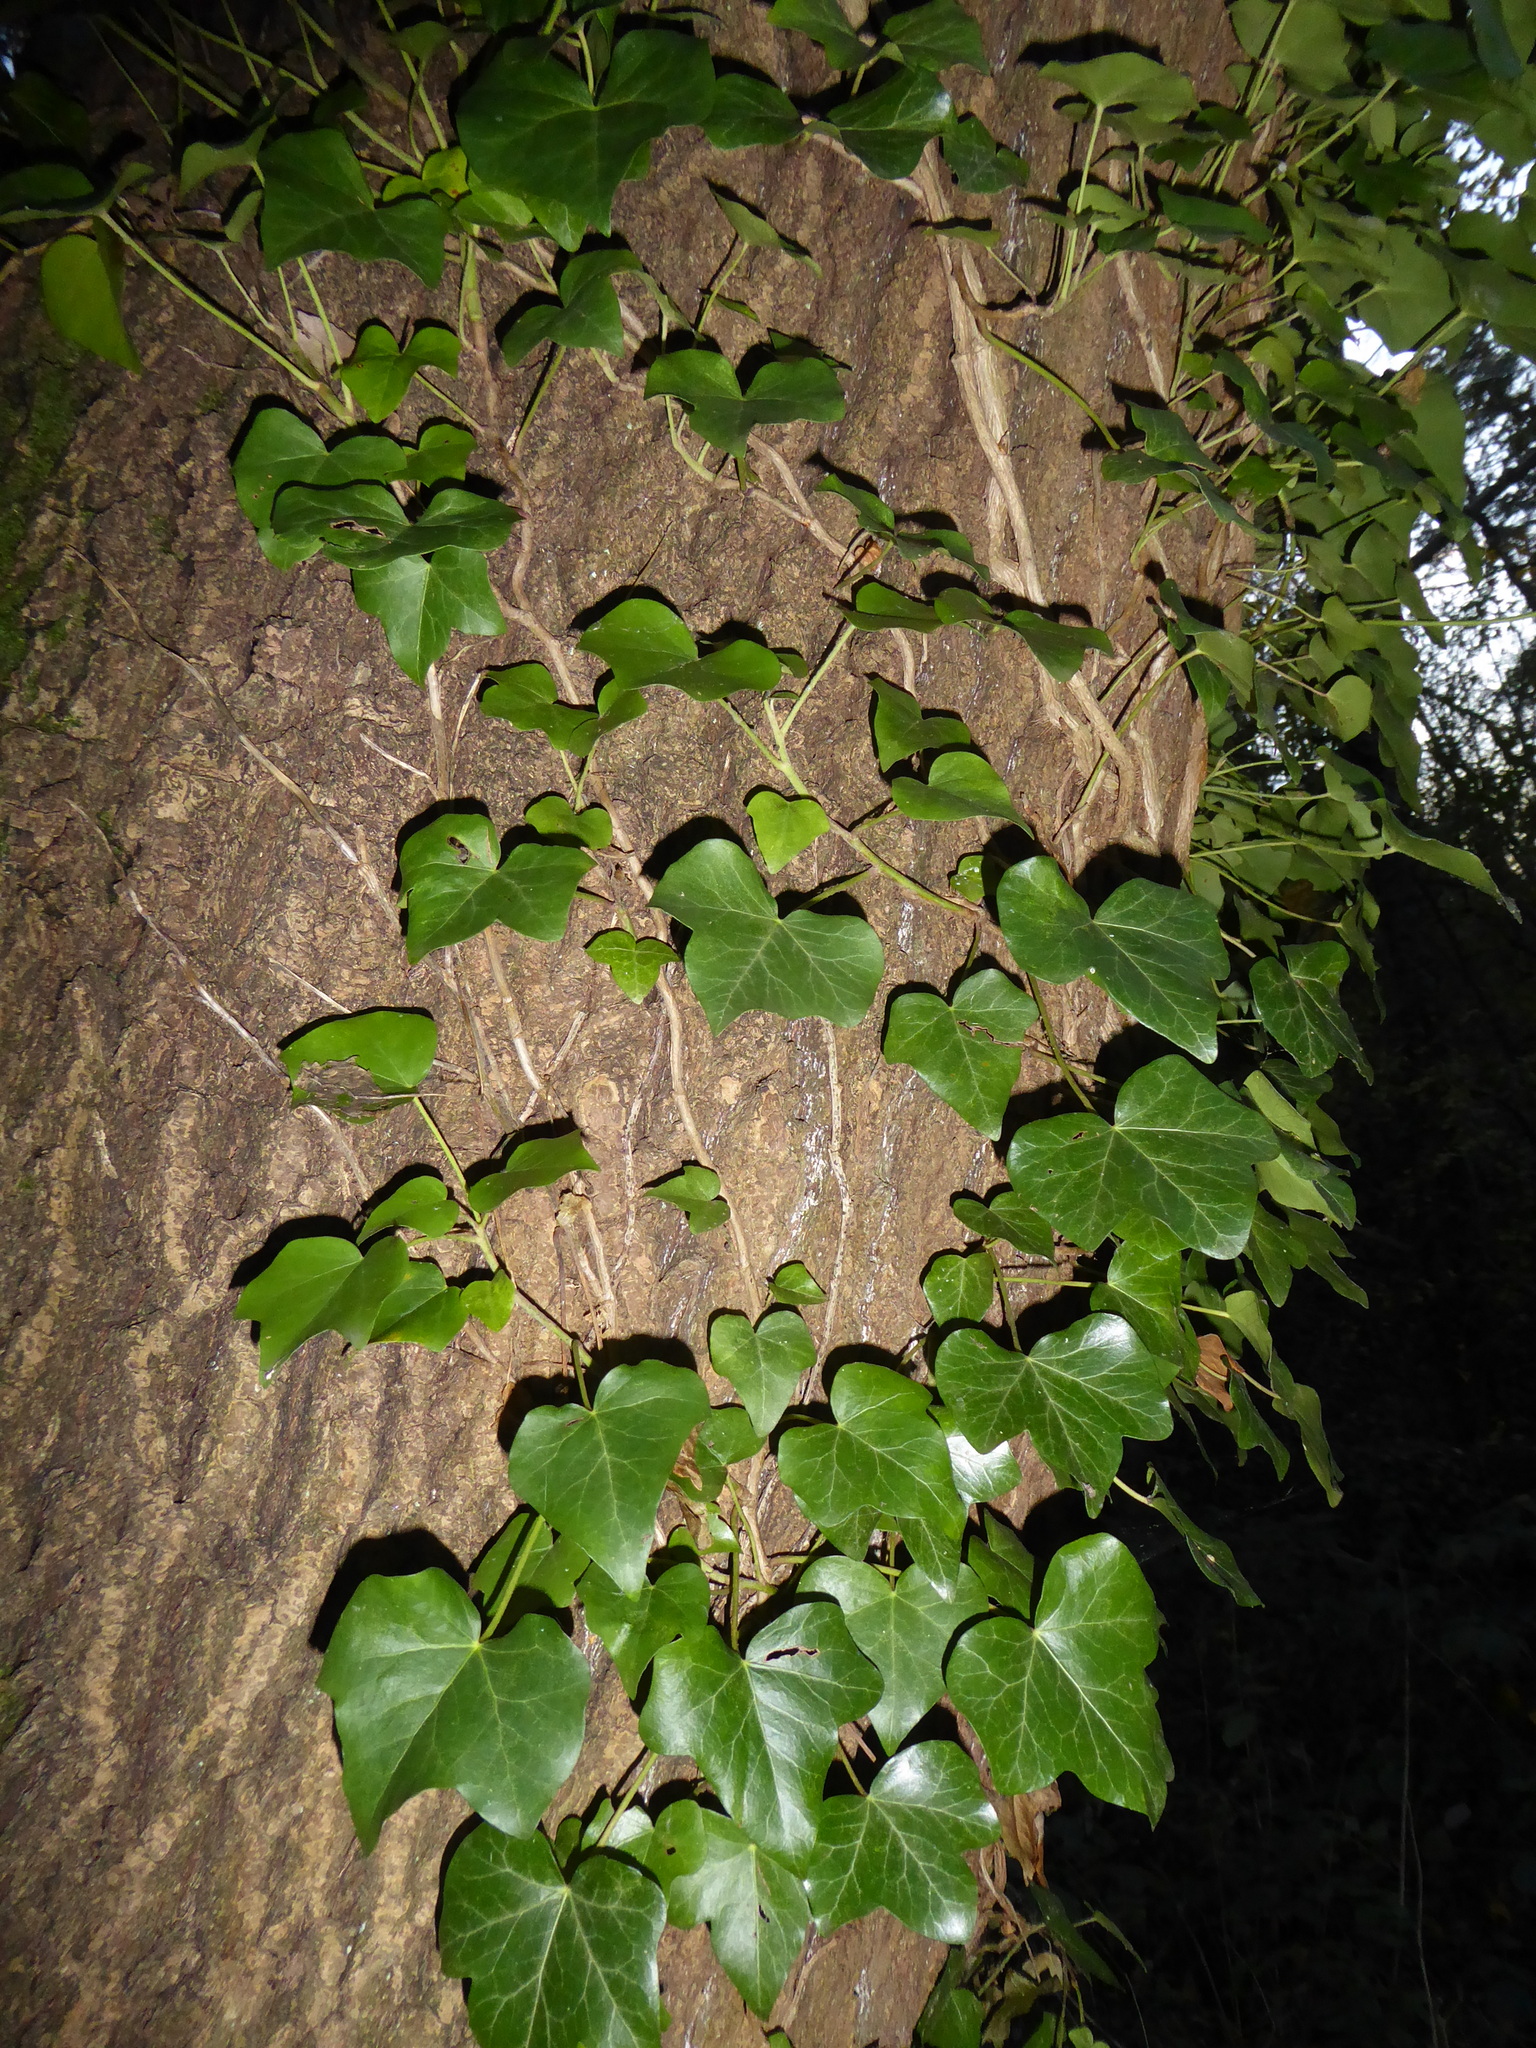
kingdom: Plantae
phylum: Tracheophyta
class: Magnoliopsida
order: Apiales
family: Araliaceae
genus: Hedera
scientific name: Hedera helix
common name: Ivy
